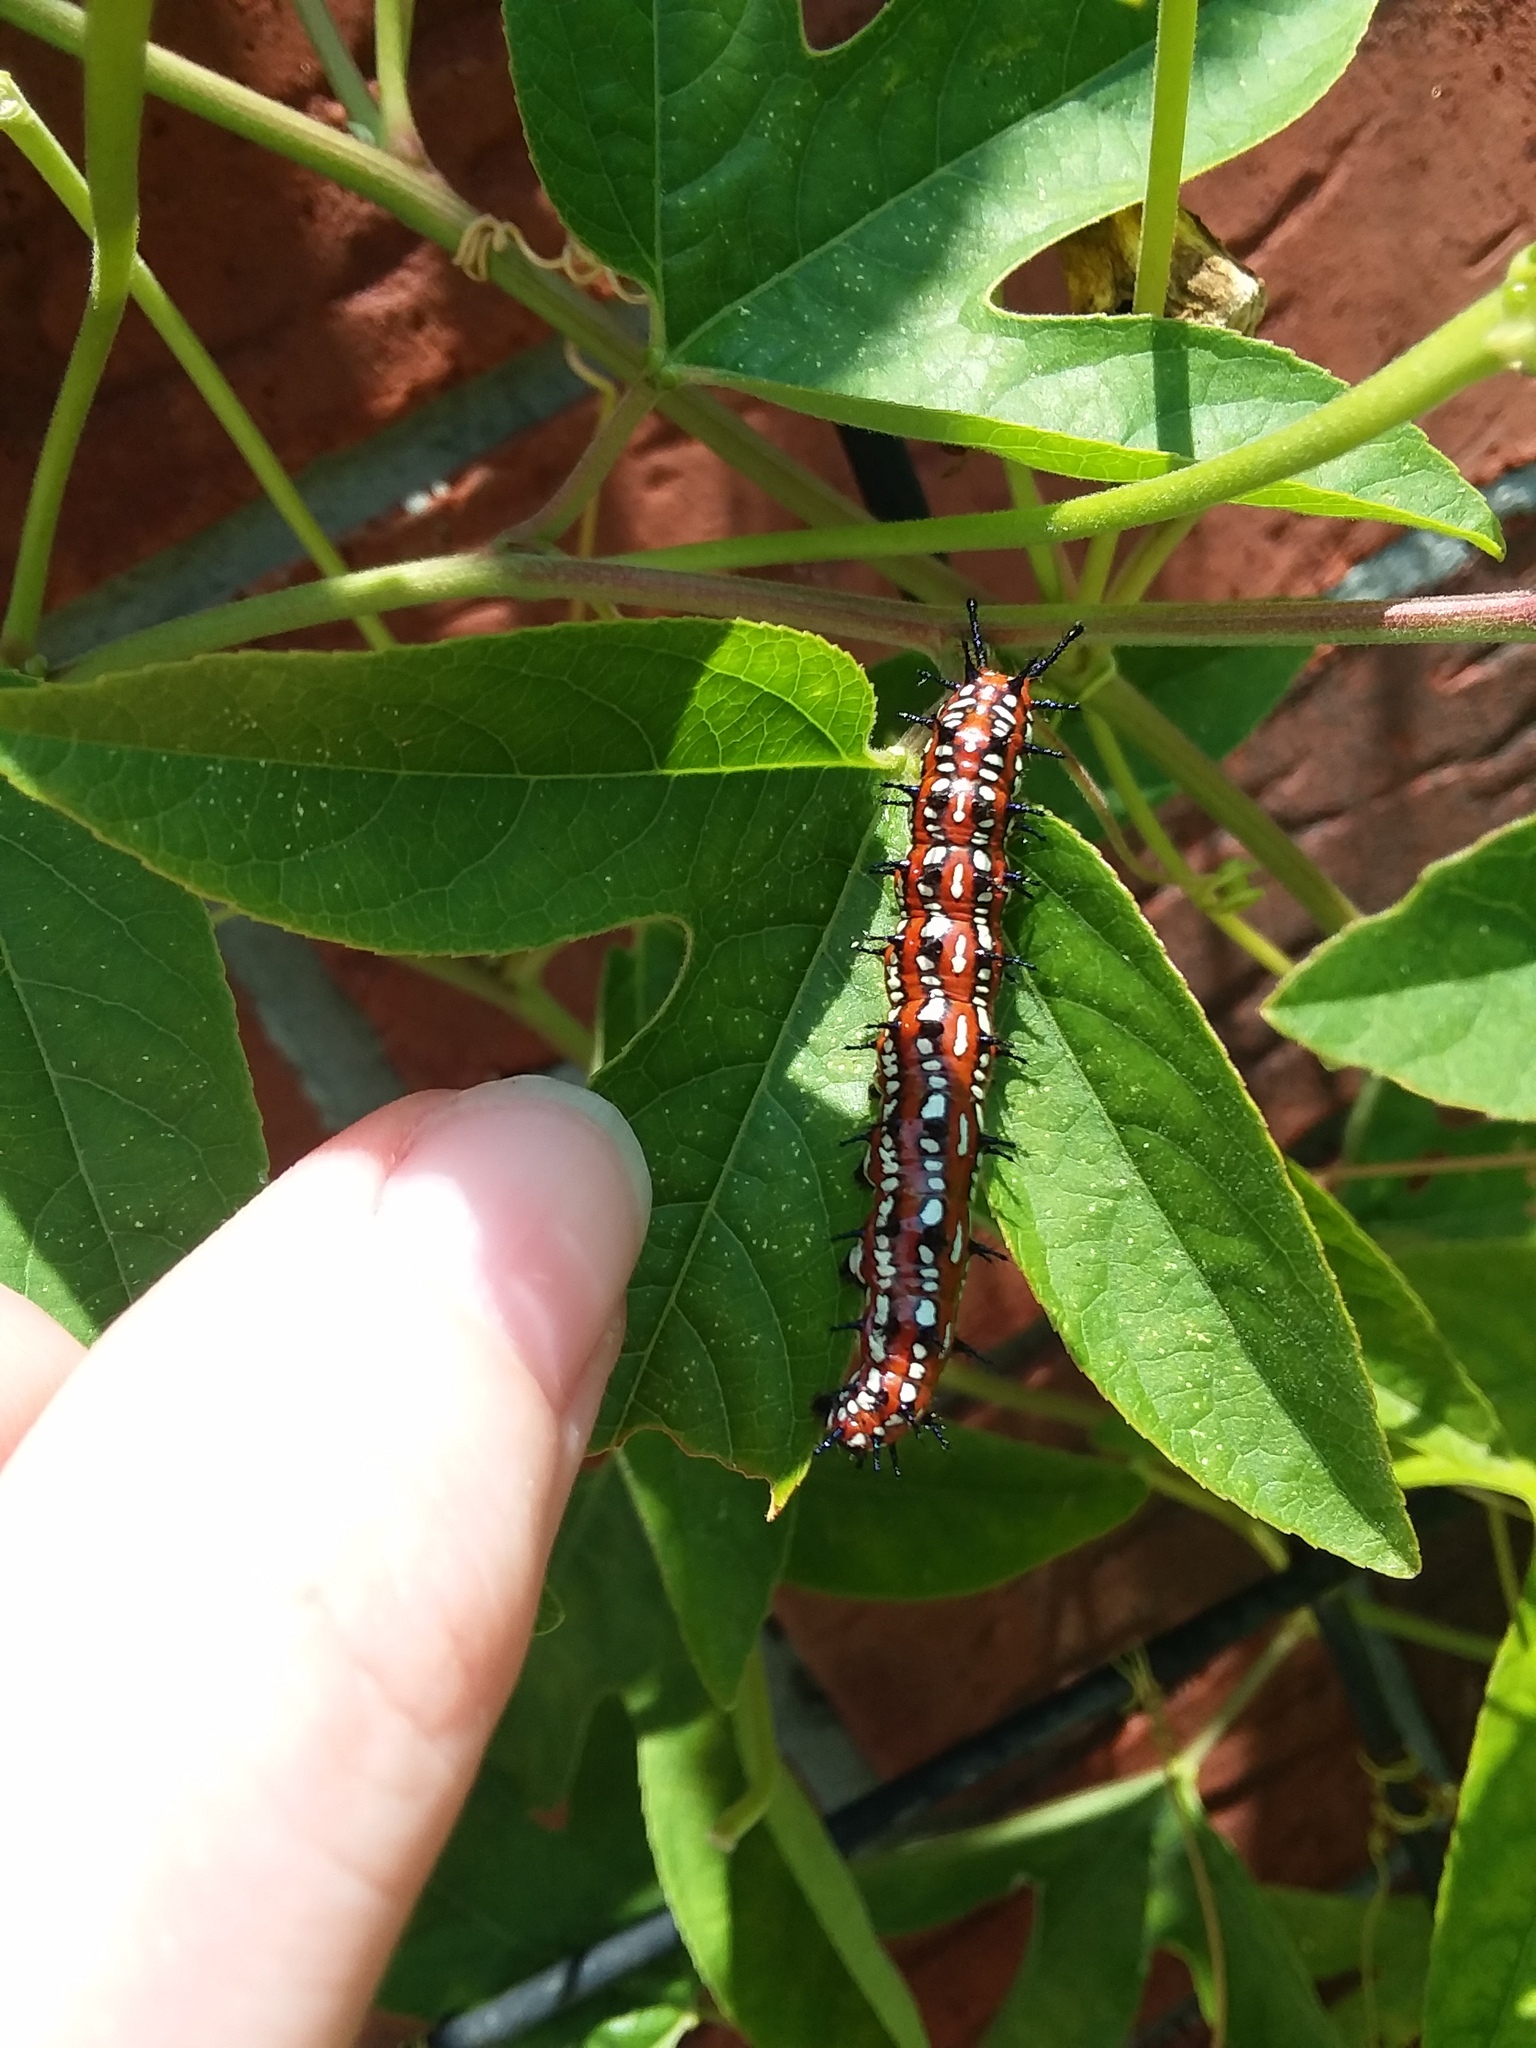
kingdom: Animalia
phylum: Arthropoda
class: Insecta
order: Lepidoptera
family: Nymphalidae
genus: Euptoieta
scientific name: Euptoieta claudia
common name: Variegated fritillary
